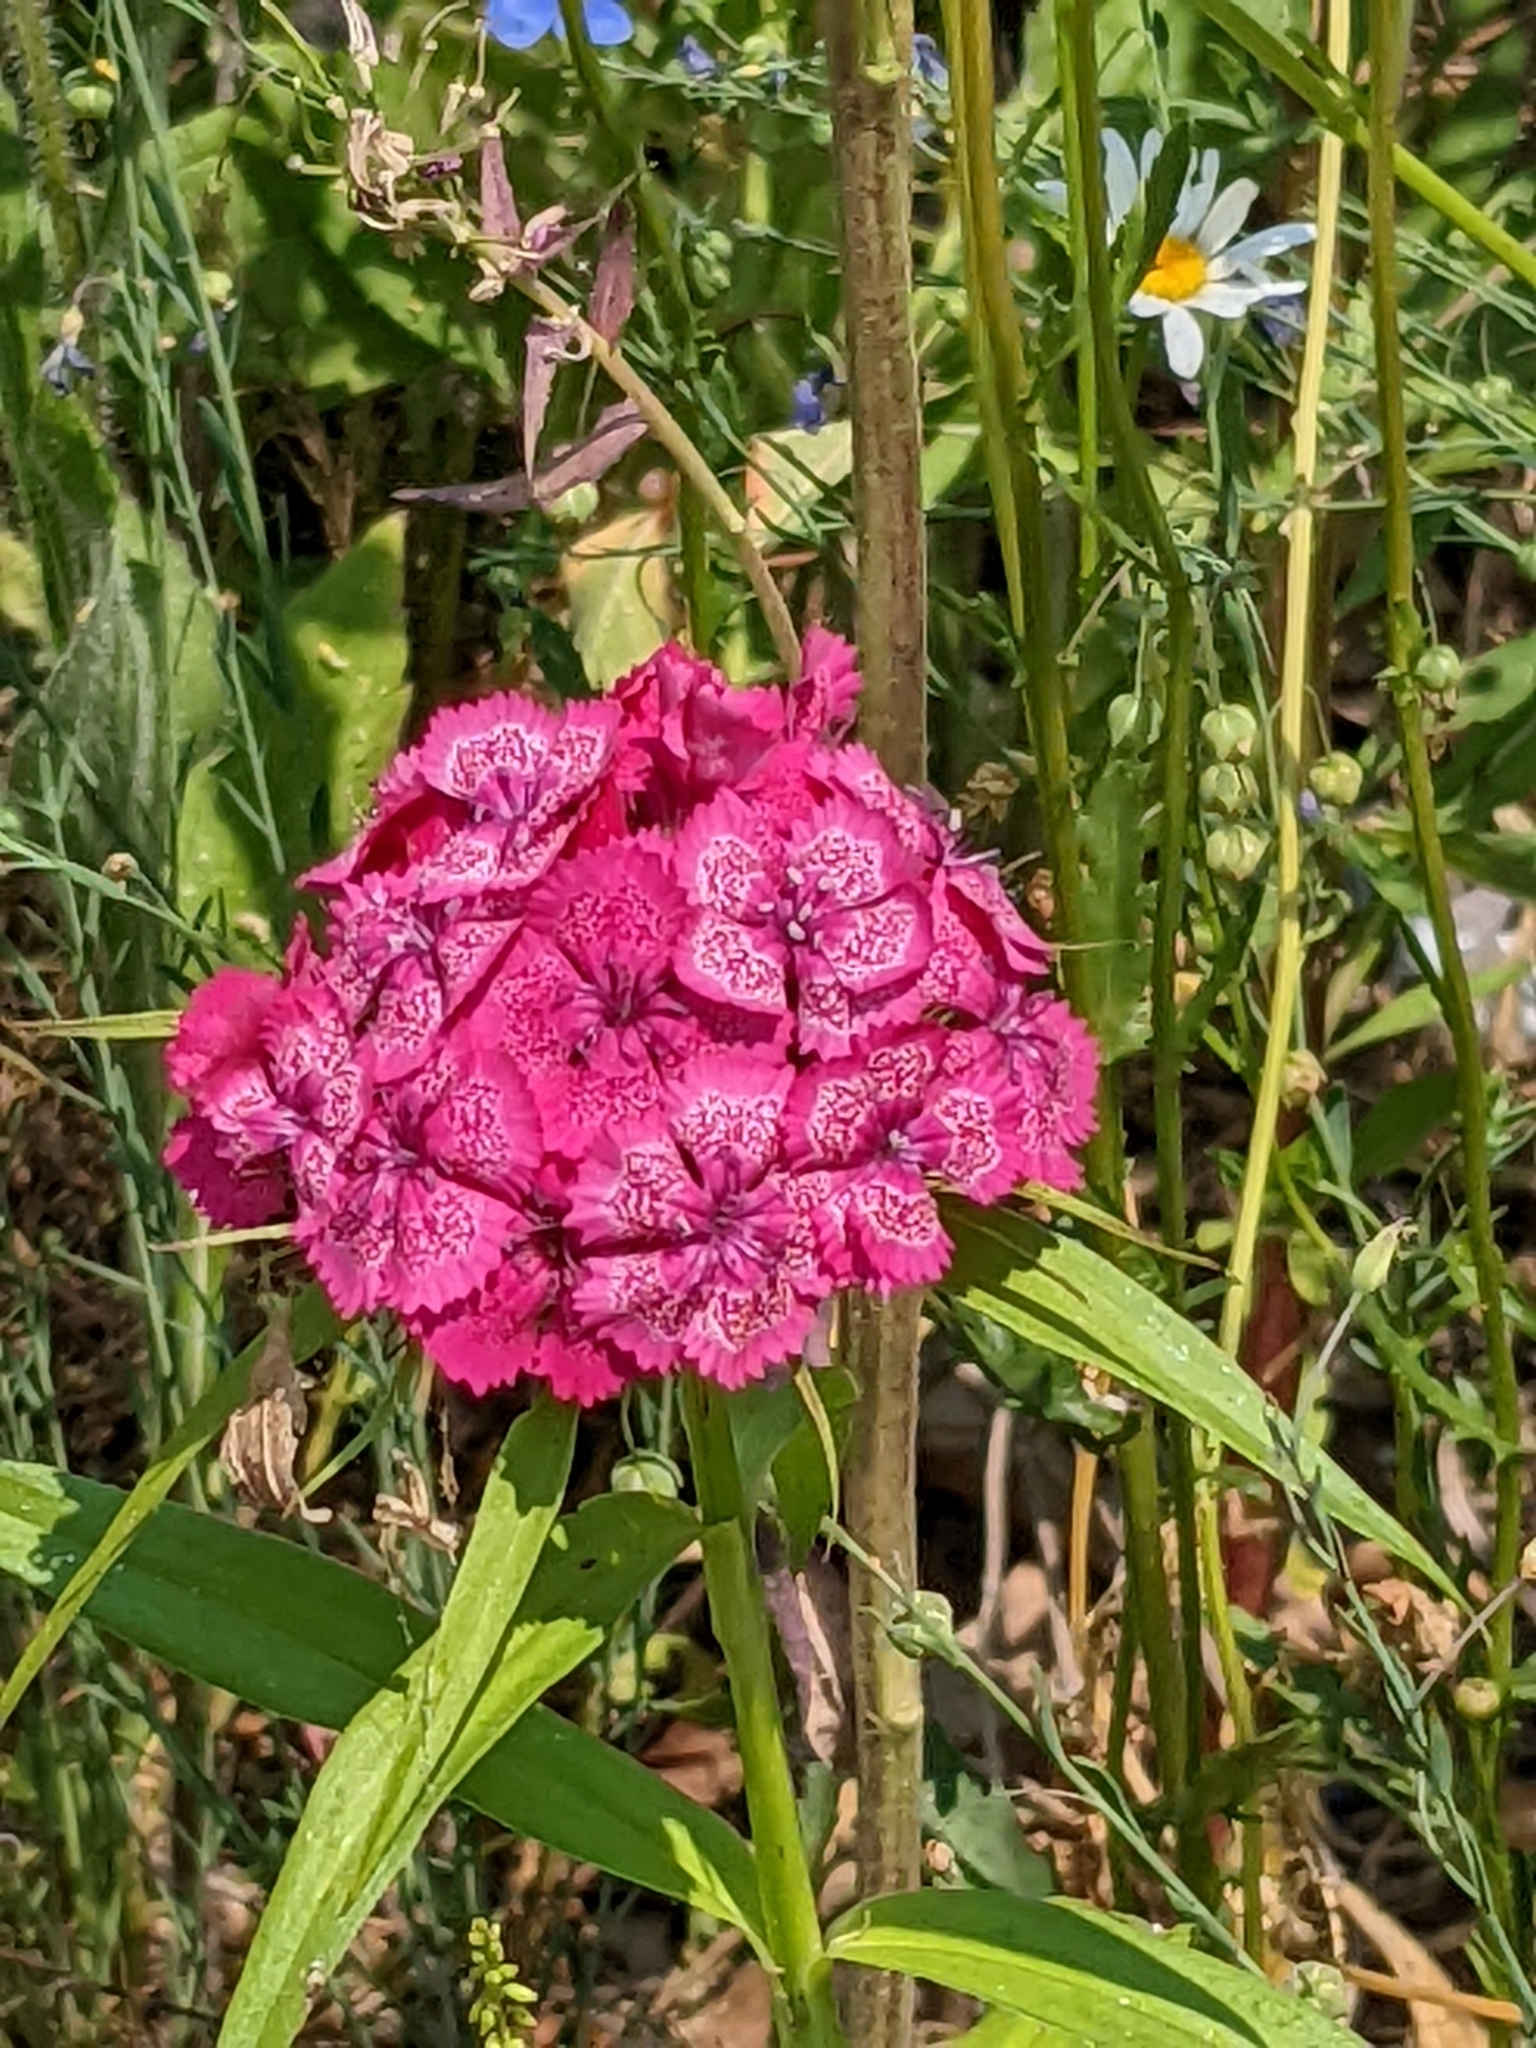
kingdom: Plantae
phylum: Tracheophyta
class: Magnoliopsida
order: Caryophyllales
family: Caryophyllaceae
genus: Dianthus
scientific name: Dianthus barbatus
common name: Sweet-william
